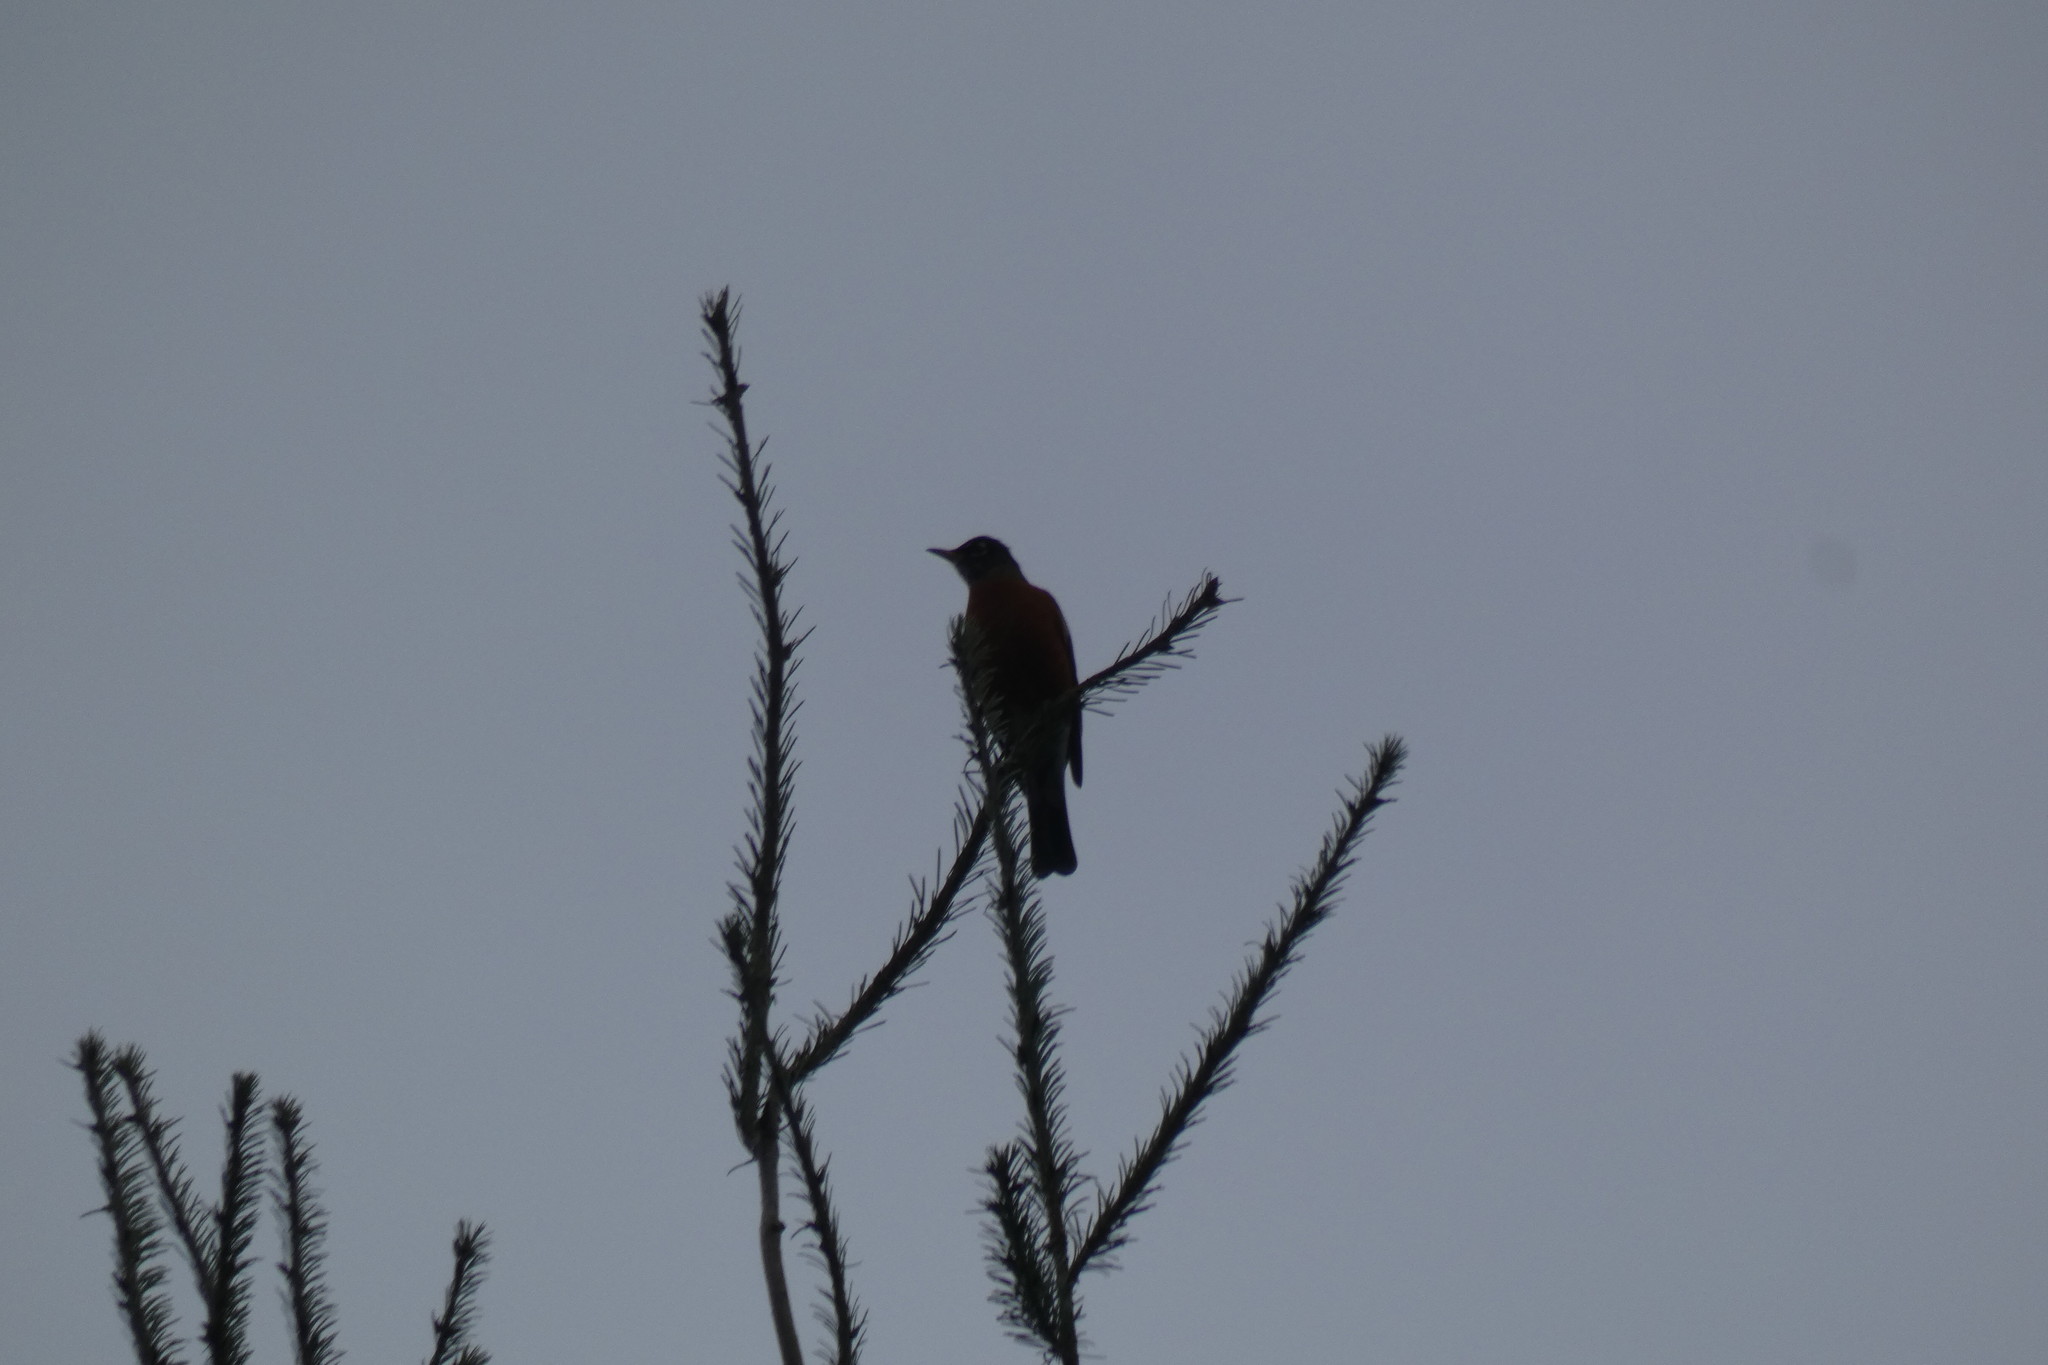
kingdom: Animalia
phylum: Chordata
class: Aves
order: Passeriformes
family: Turdidae
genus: Turdus
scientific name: Turdus migratorius
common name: American robin
